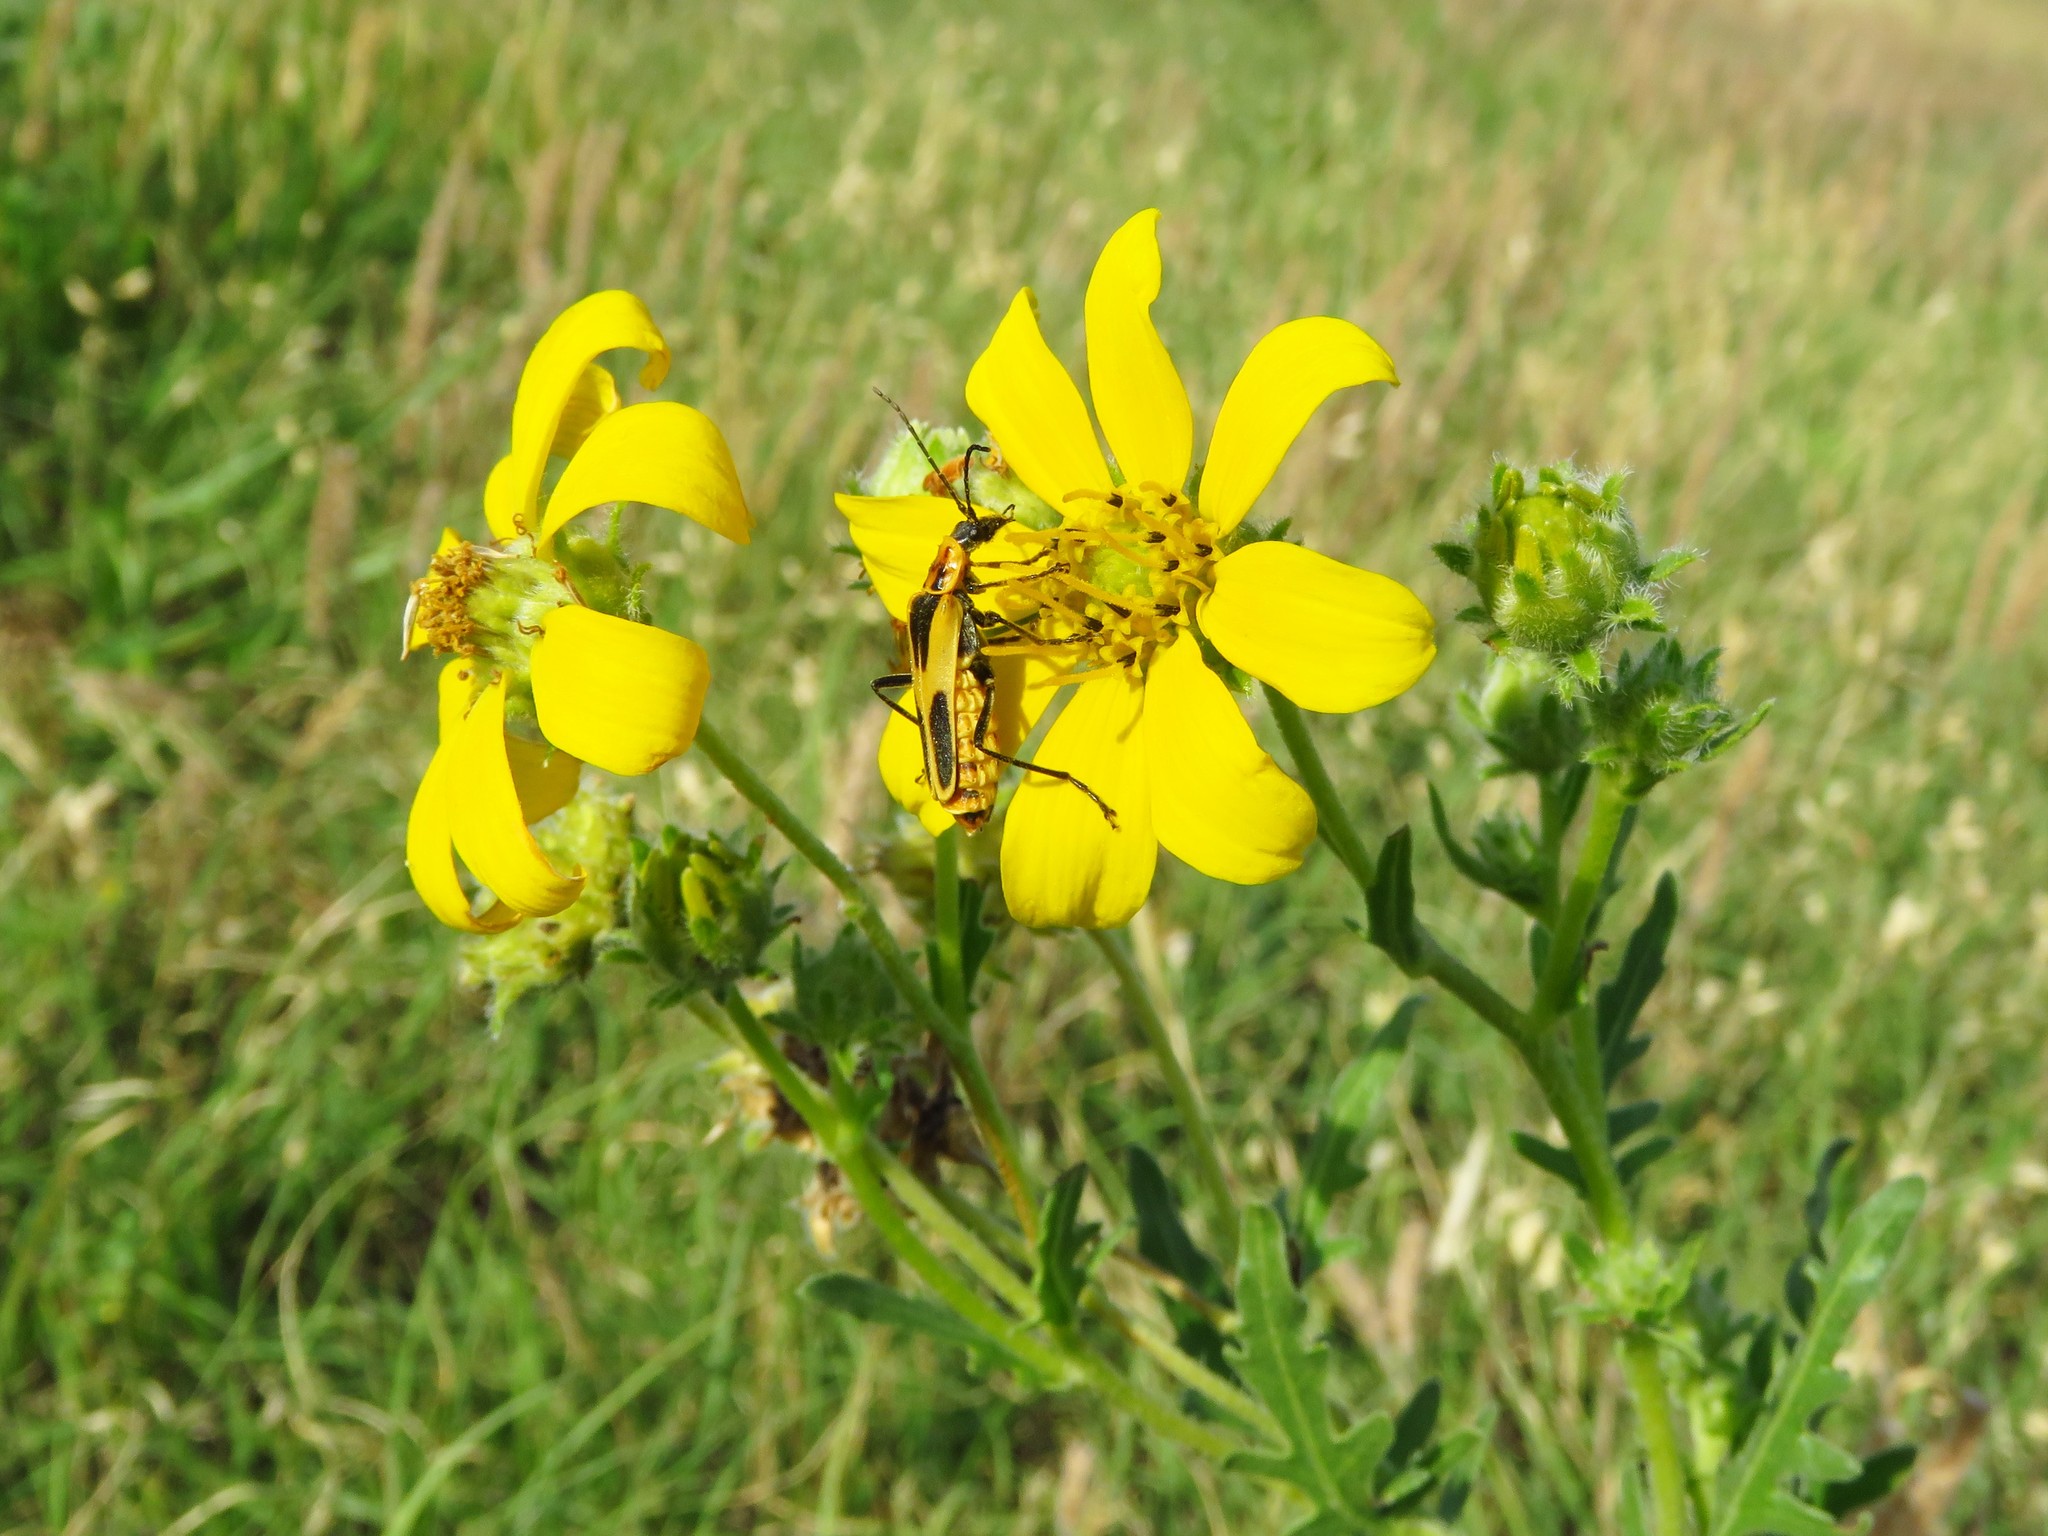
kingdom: Plantae
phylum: Tracheophyta
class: Magnoliopsida
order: Asterales
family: Asteraceae
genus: Engelmannia
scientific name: Engelmannia peristenia
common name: Engelmann's daisy
